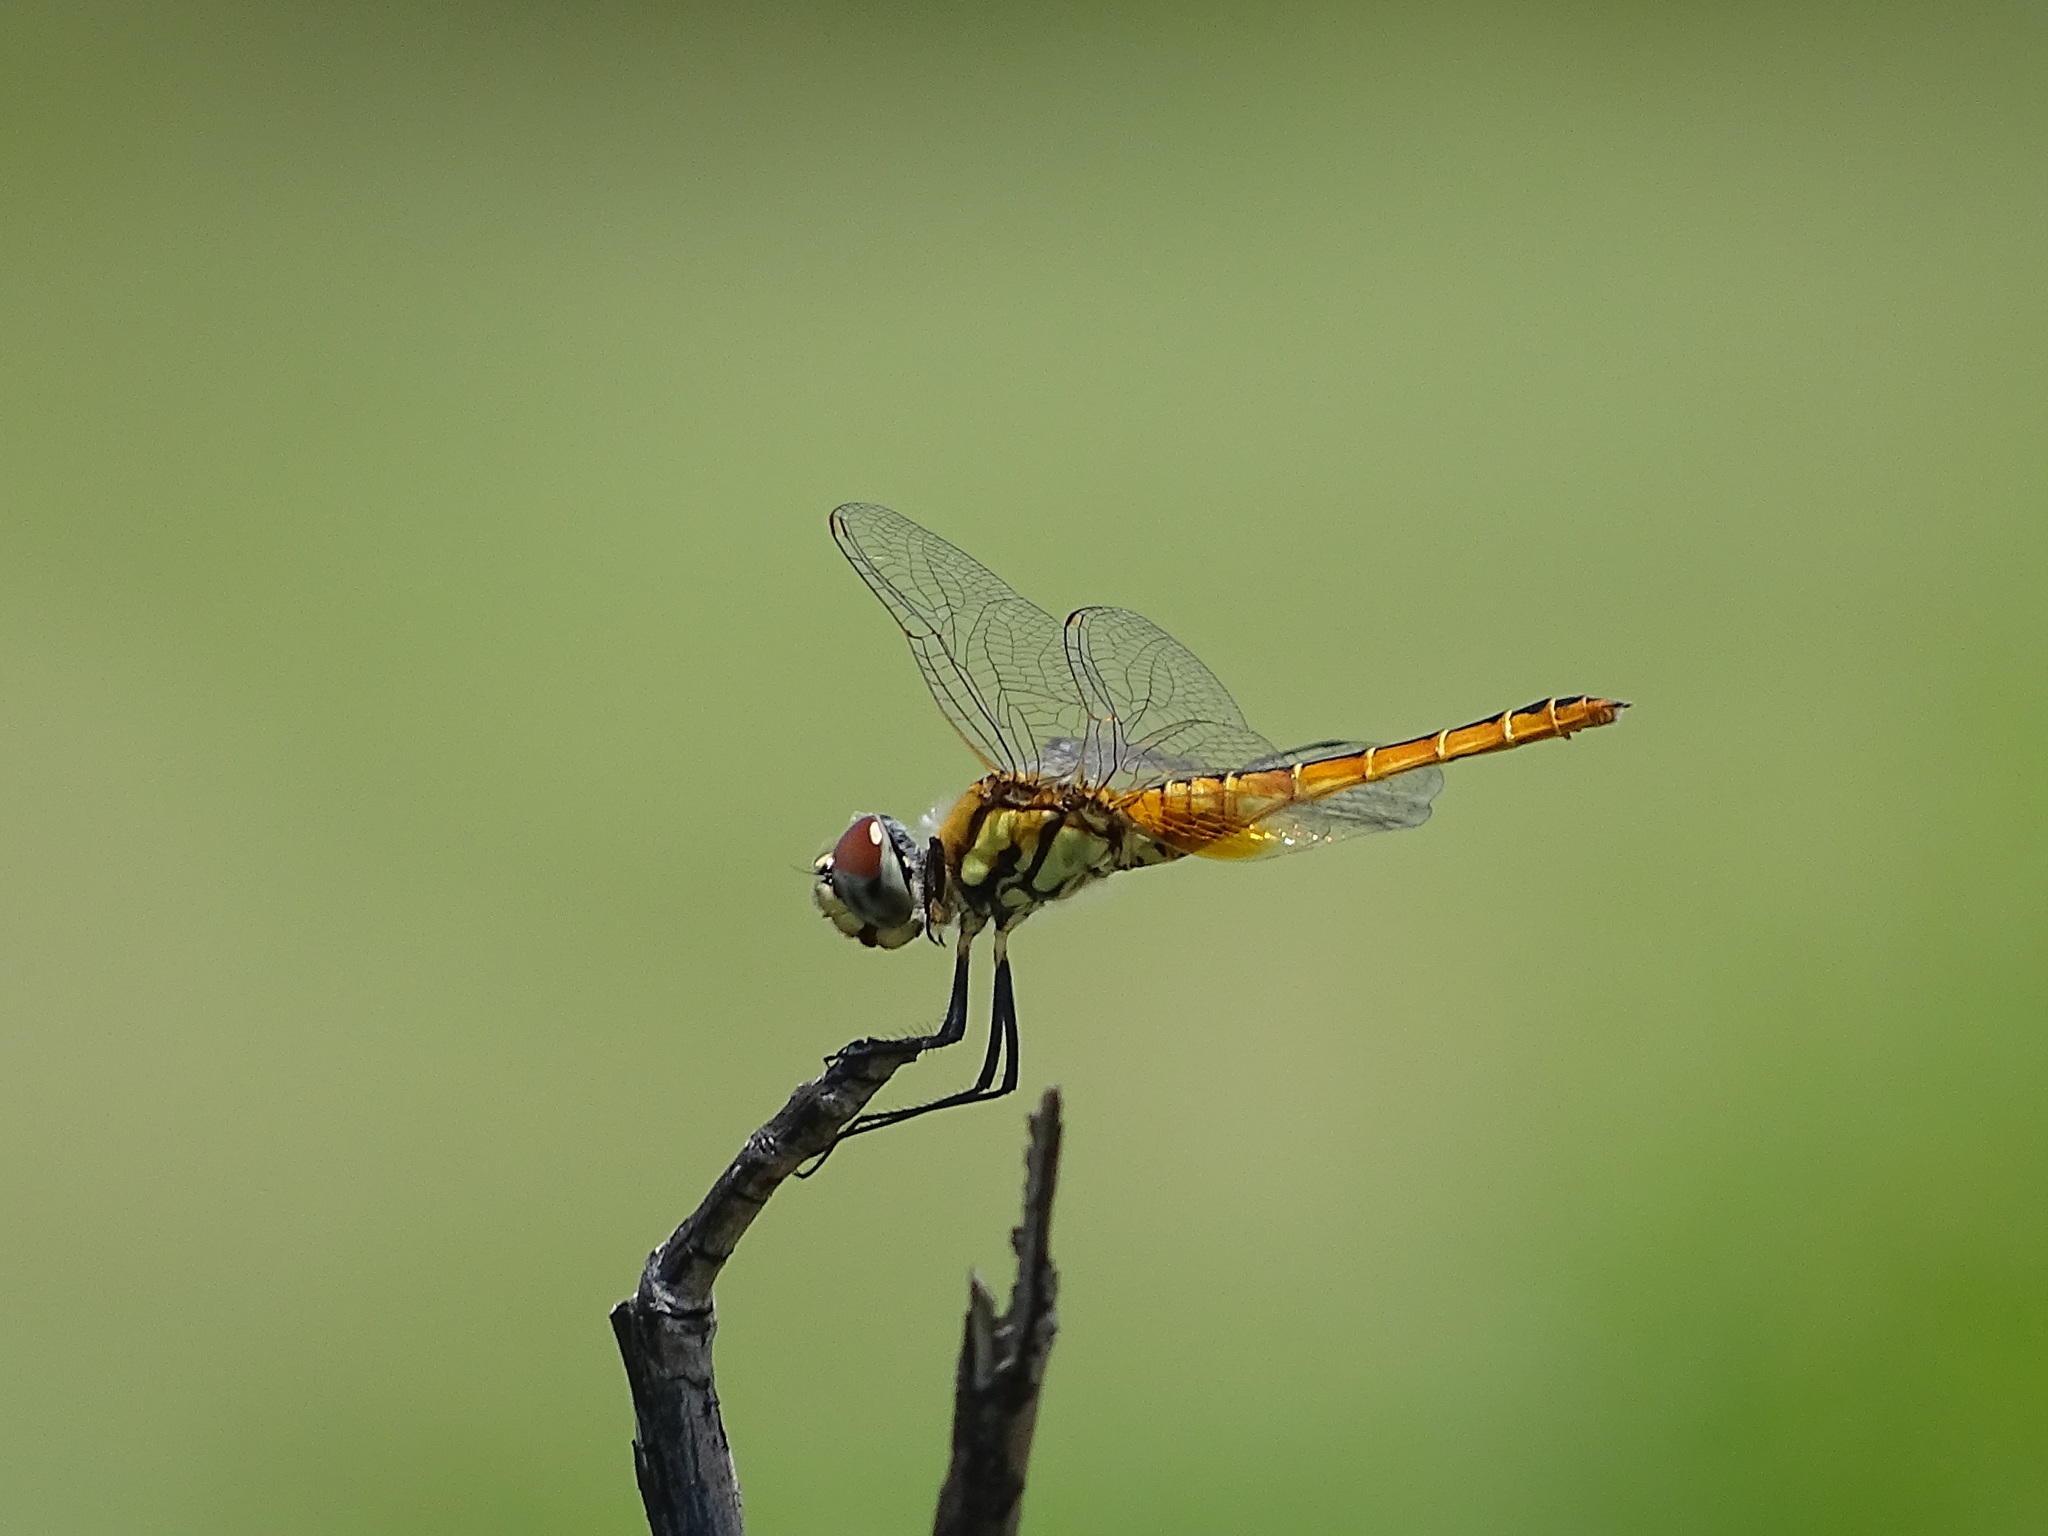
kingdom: Animalia
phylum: Arthropoda
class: Insecta
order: Odonata
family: Libellulidae
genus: Macrodiplax
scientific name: Macrodiplax cora
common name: Coastal glider
